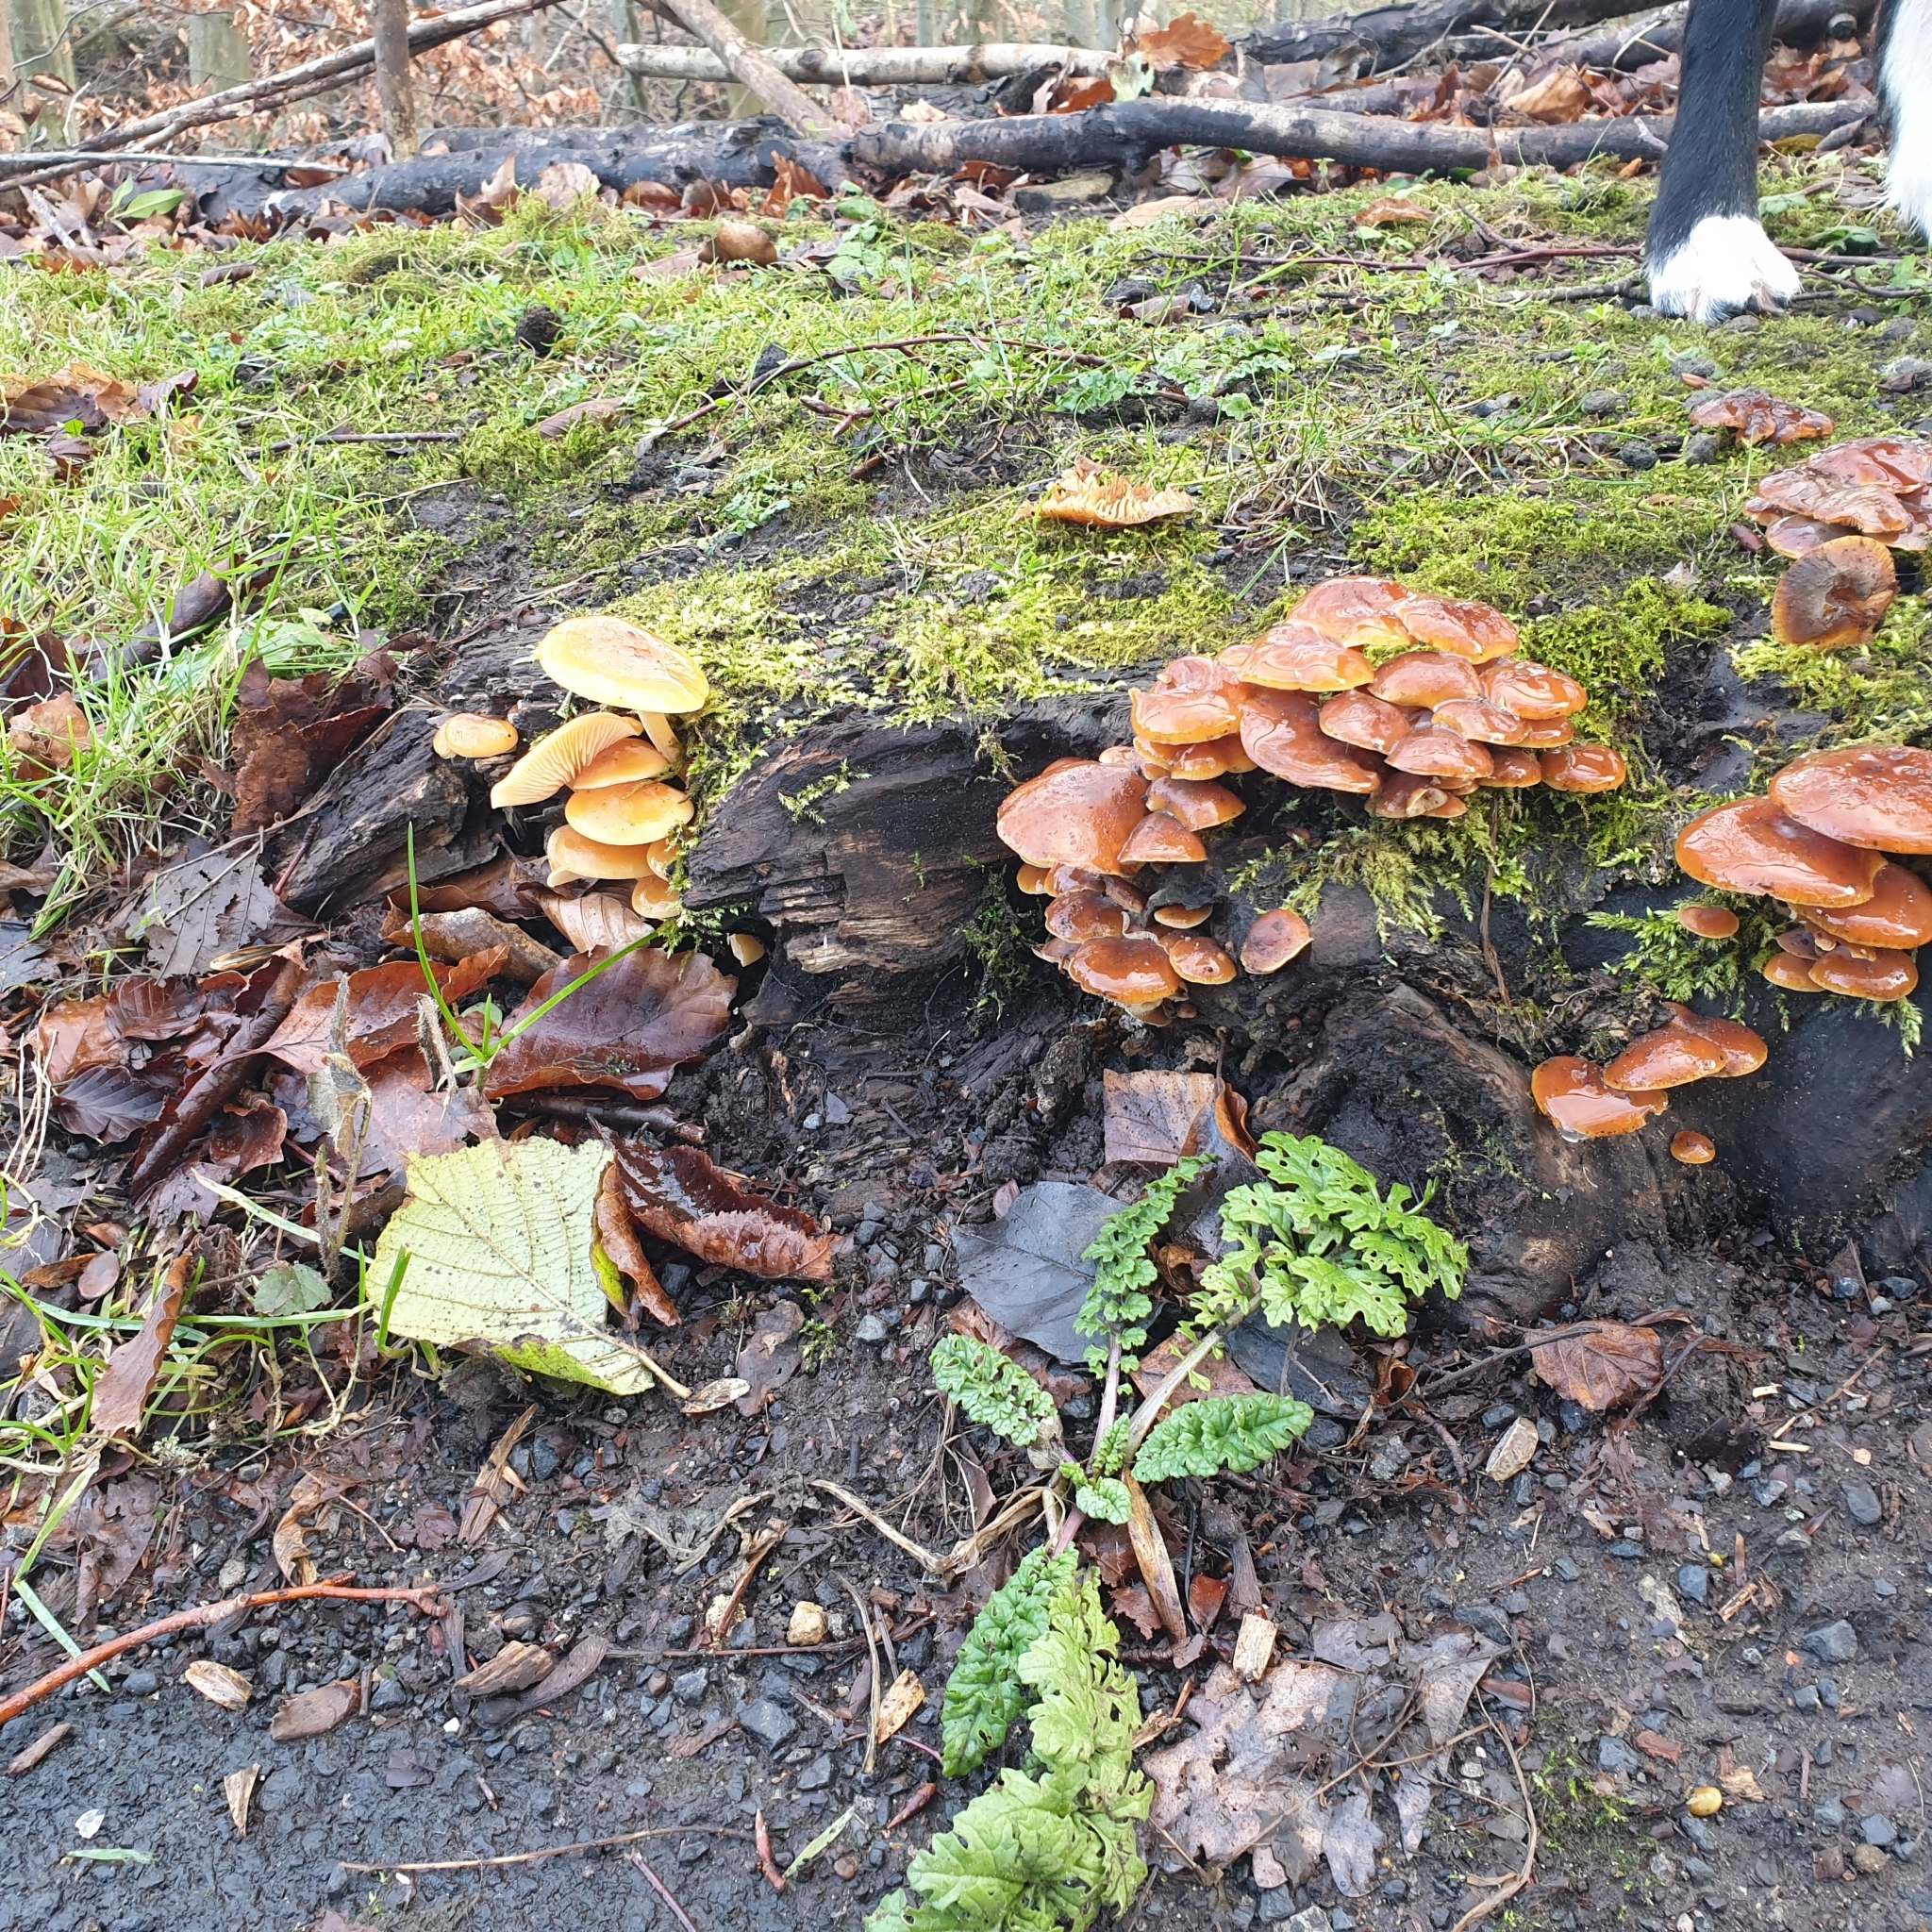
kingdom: Fungi
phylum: Basidiomycota
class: Agaricomycetes
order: Agaricales
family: Physalacriaceae
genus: Flammulina
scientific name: Flammulina
